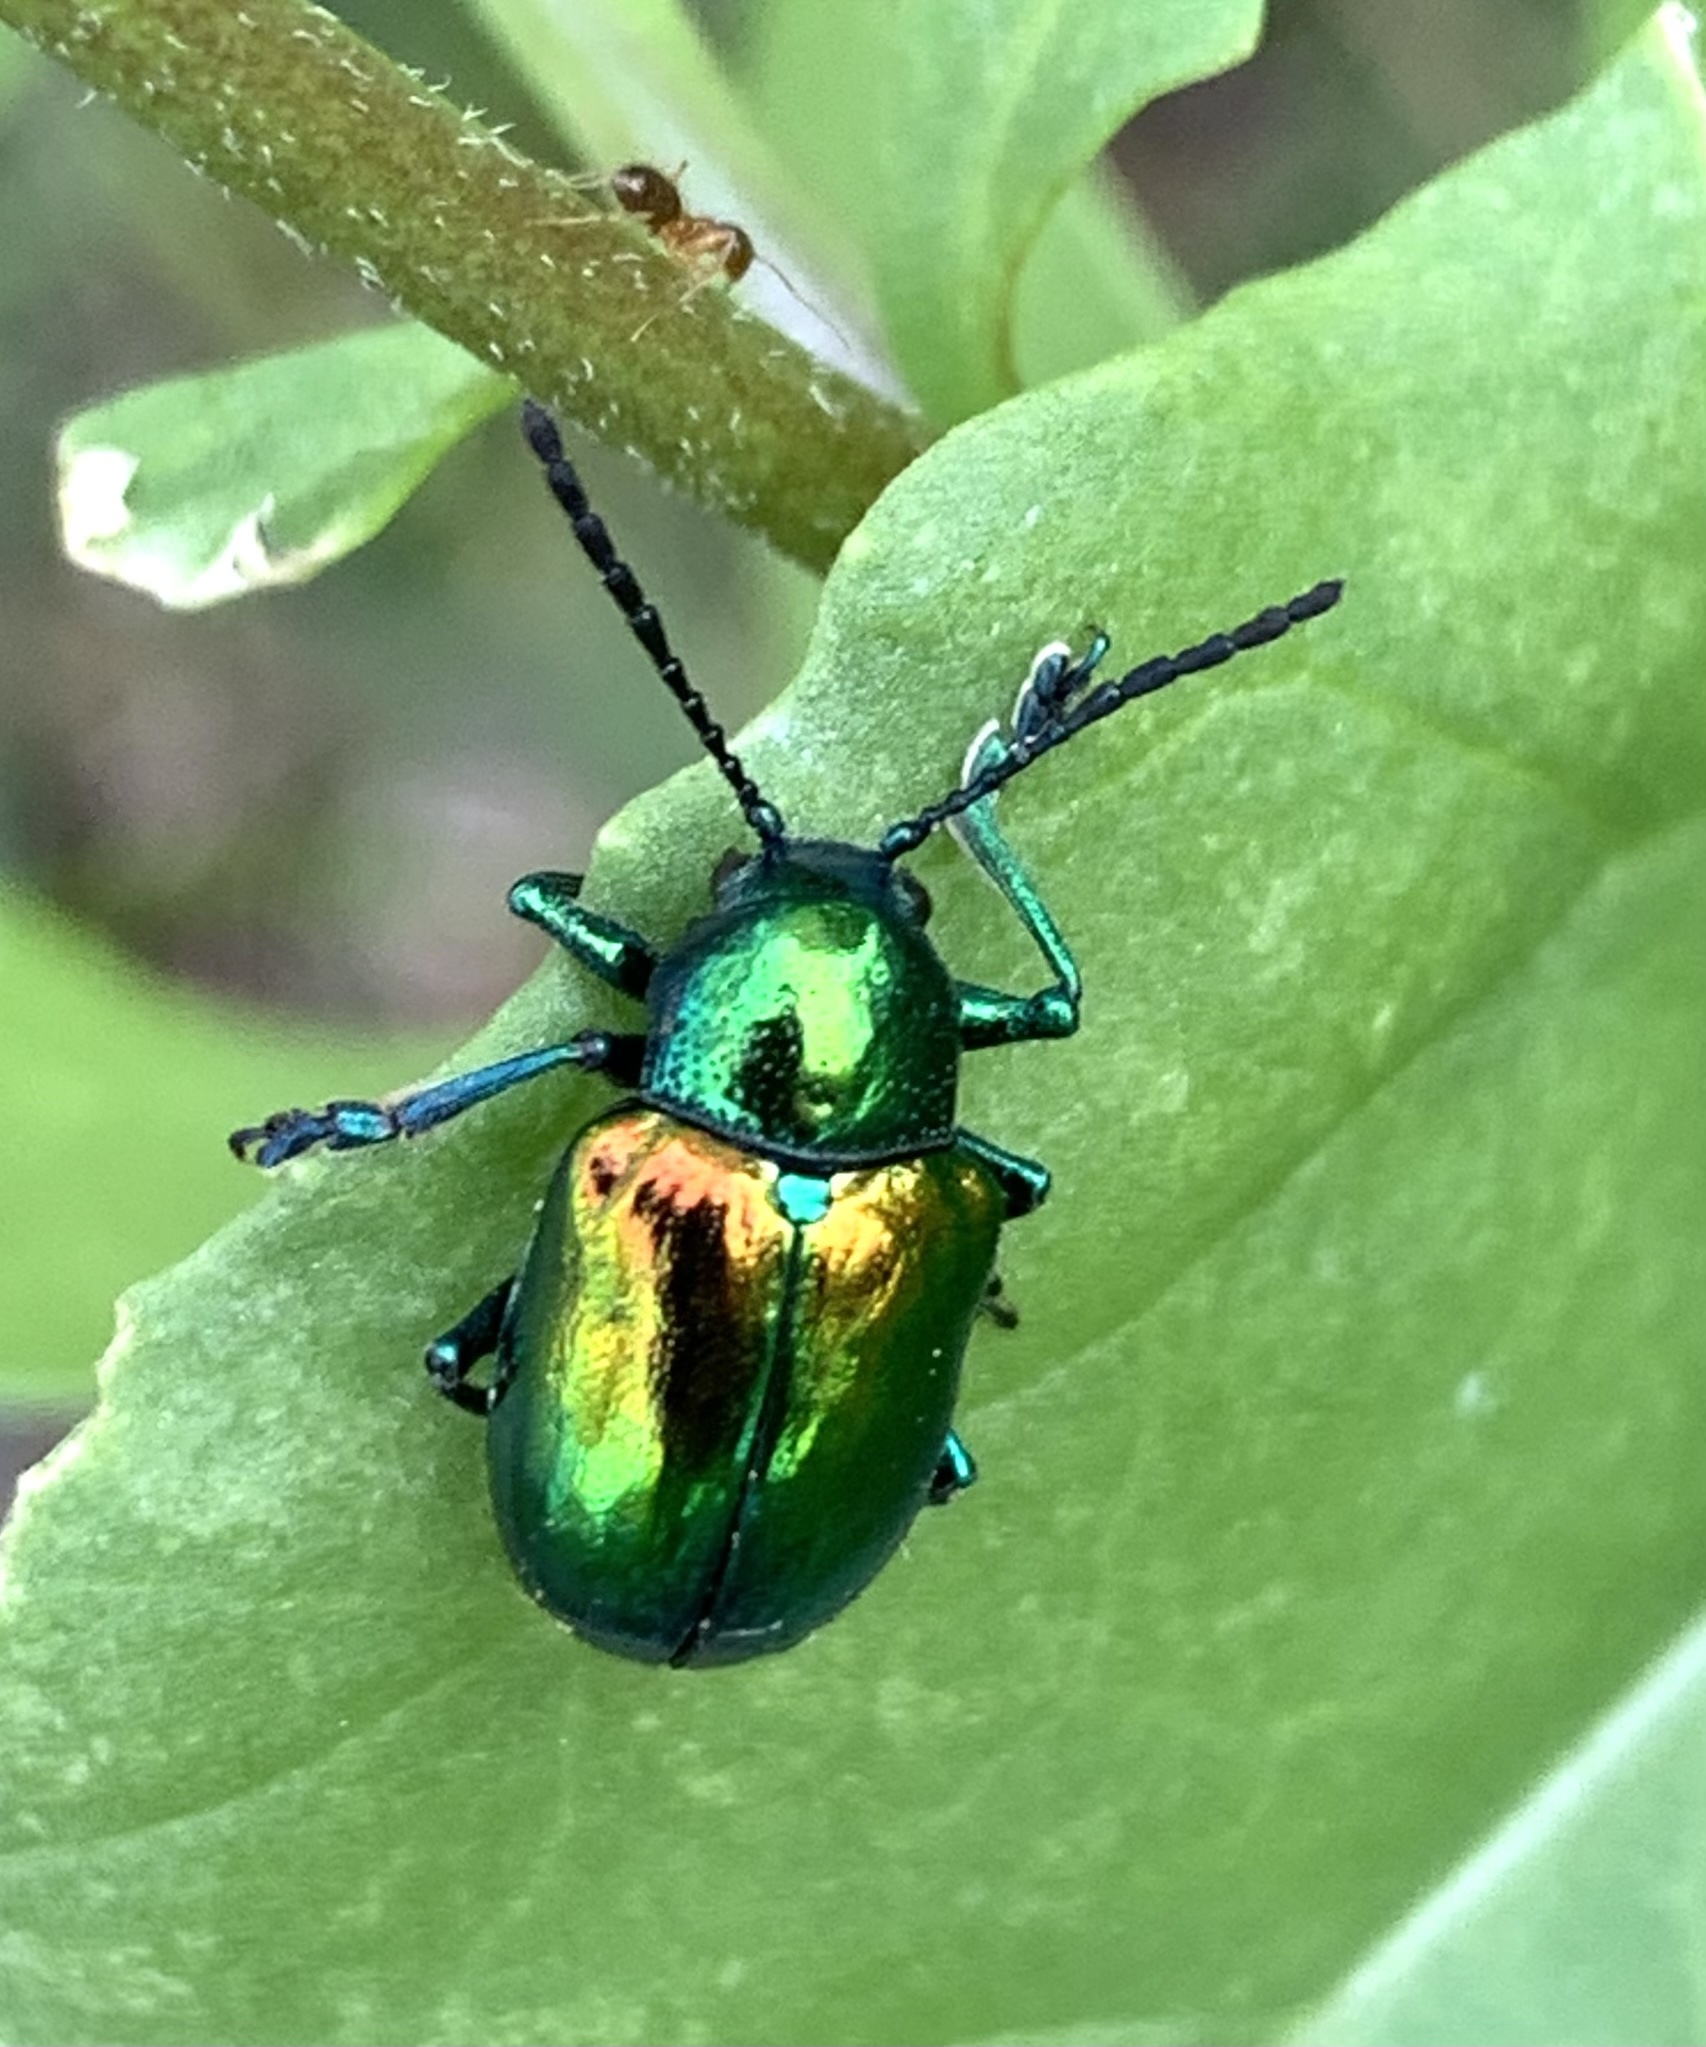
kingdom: Animalia
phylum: Arthropoda
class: Insecta
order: Coleoptera
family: Chrysomelidae
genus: Chrysochus
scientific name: Chrysochus auratus
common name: Dogbane leaf beetle
